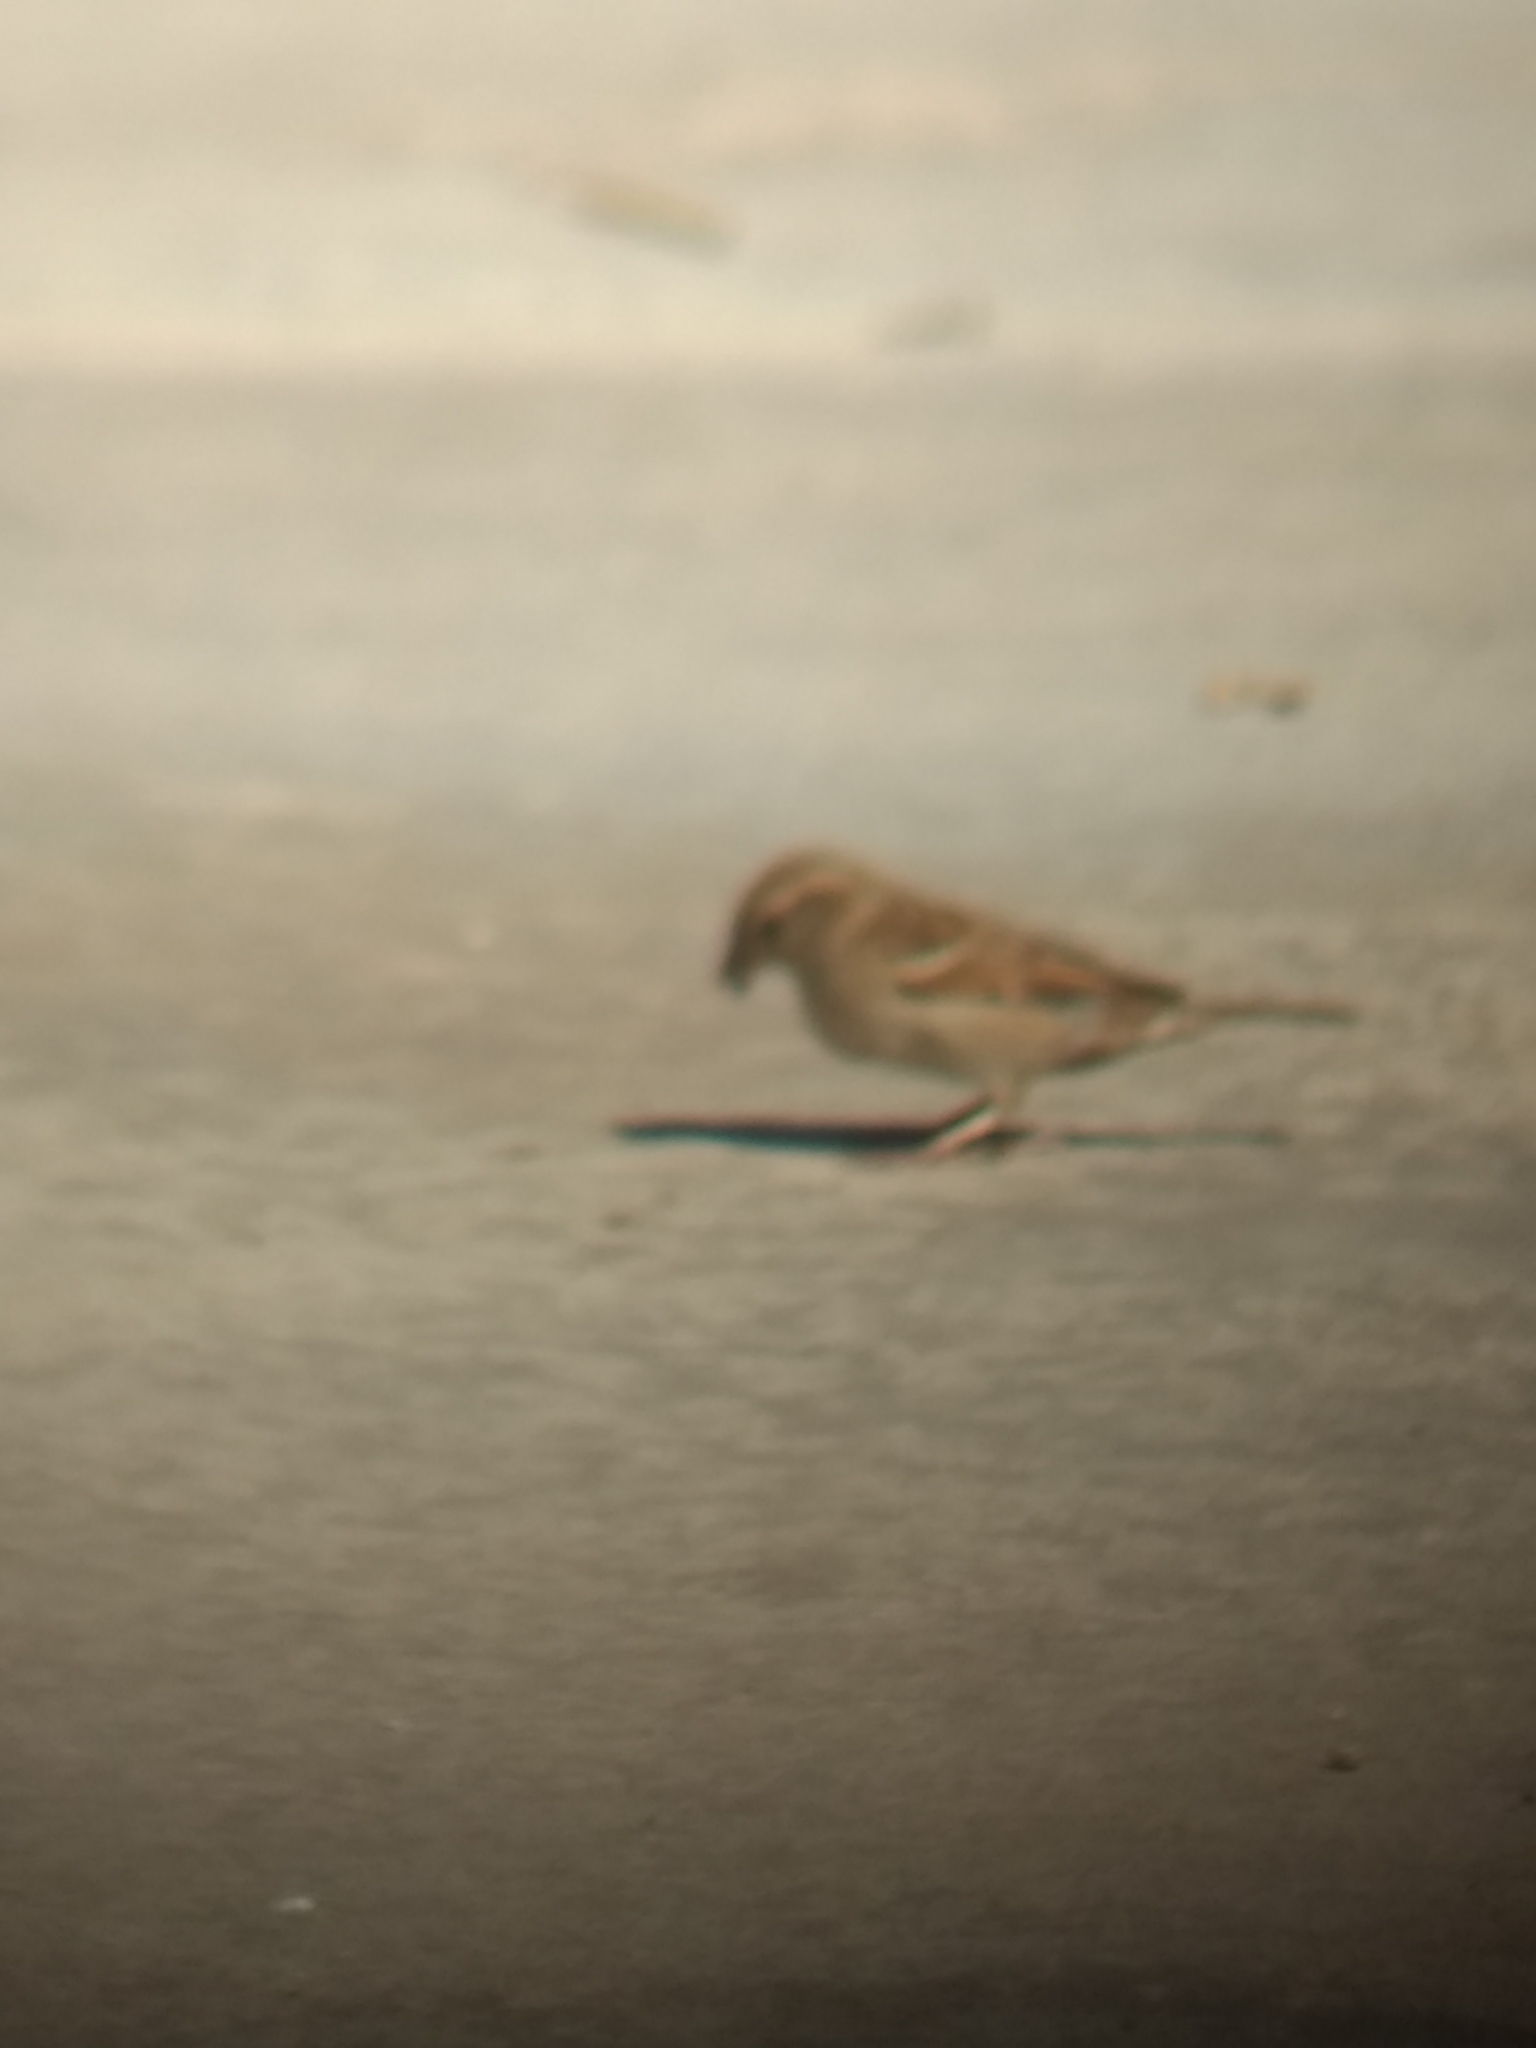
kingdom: Animalia
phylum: Chordata
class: Aves
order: Passeriformes
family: Passeridae
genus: Passer
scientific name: Passer domesticus
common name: House sparrow
